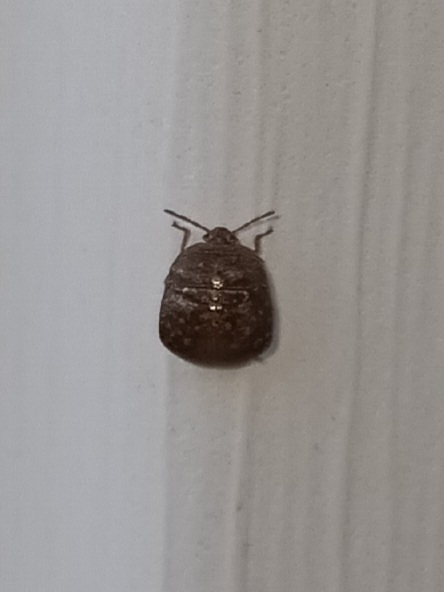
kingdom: Animalia
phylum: Arthropoda
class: Insecta
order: Hemiptera
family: Plataspidae
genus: Megacopta
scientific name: Megacopta cribraria
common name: Bean plataspid
